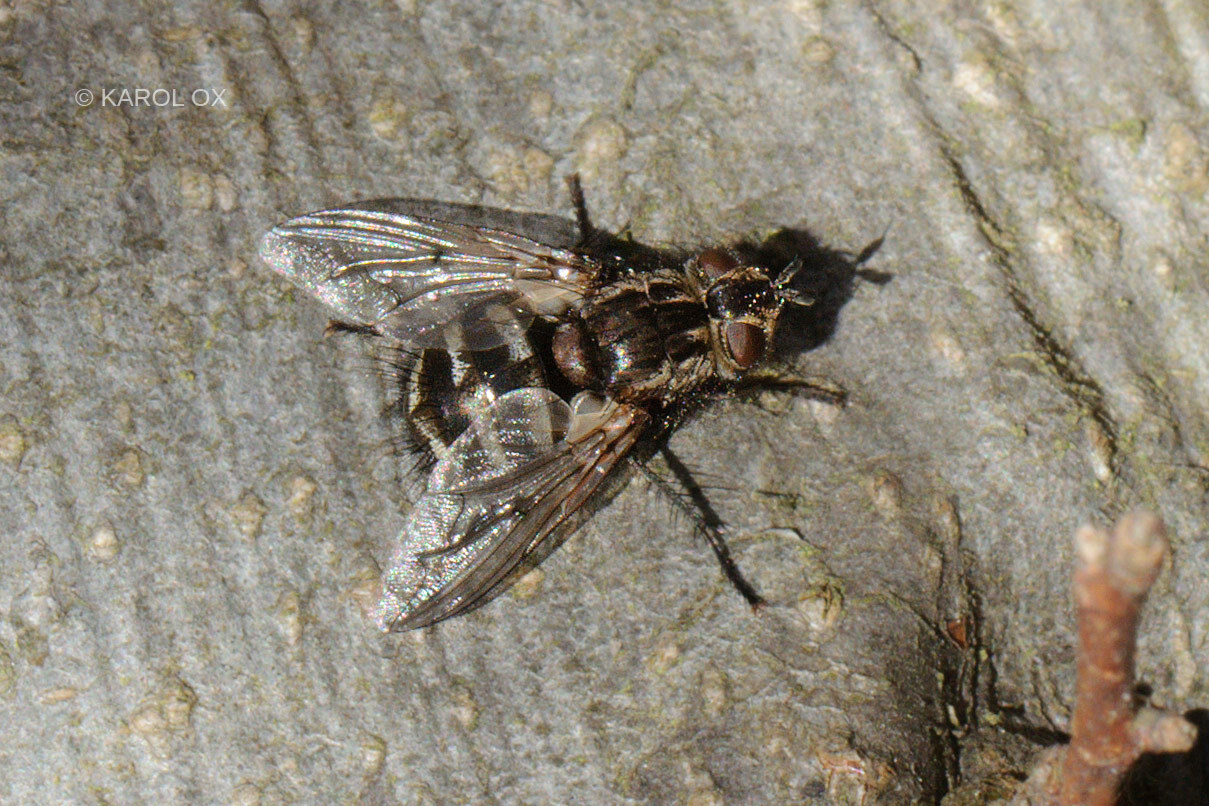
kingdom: Animalia
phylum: Arthropoda
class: Insecta
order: Diptera
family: Tachinidae
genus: Panzeria
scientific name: Panzeria puparum
